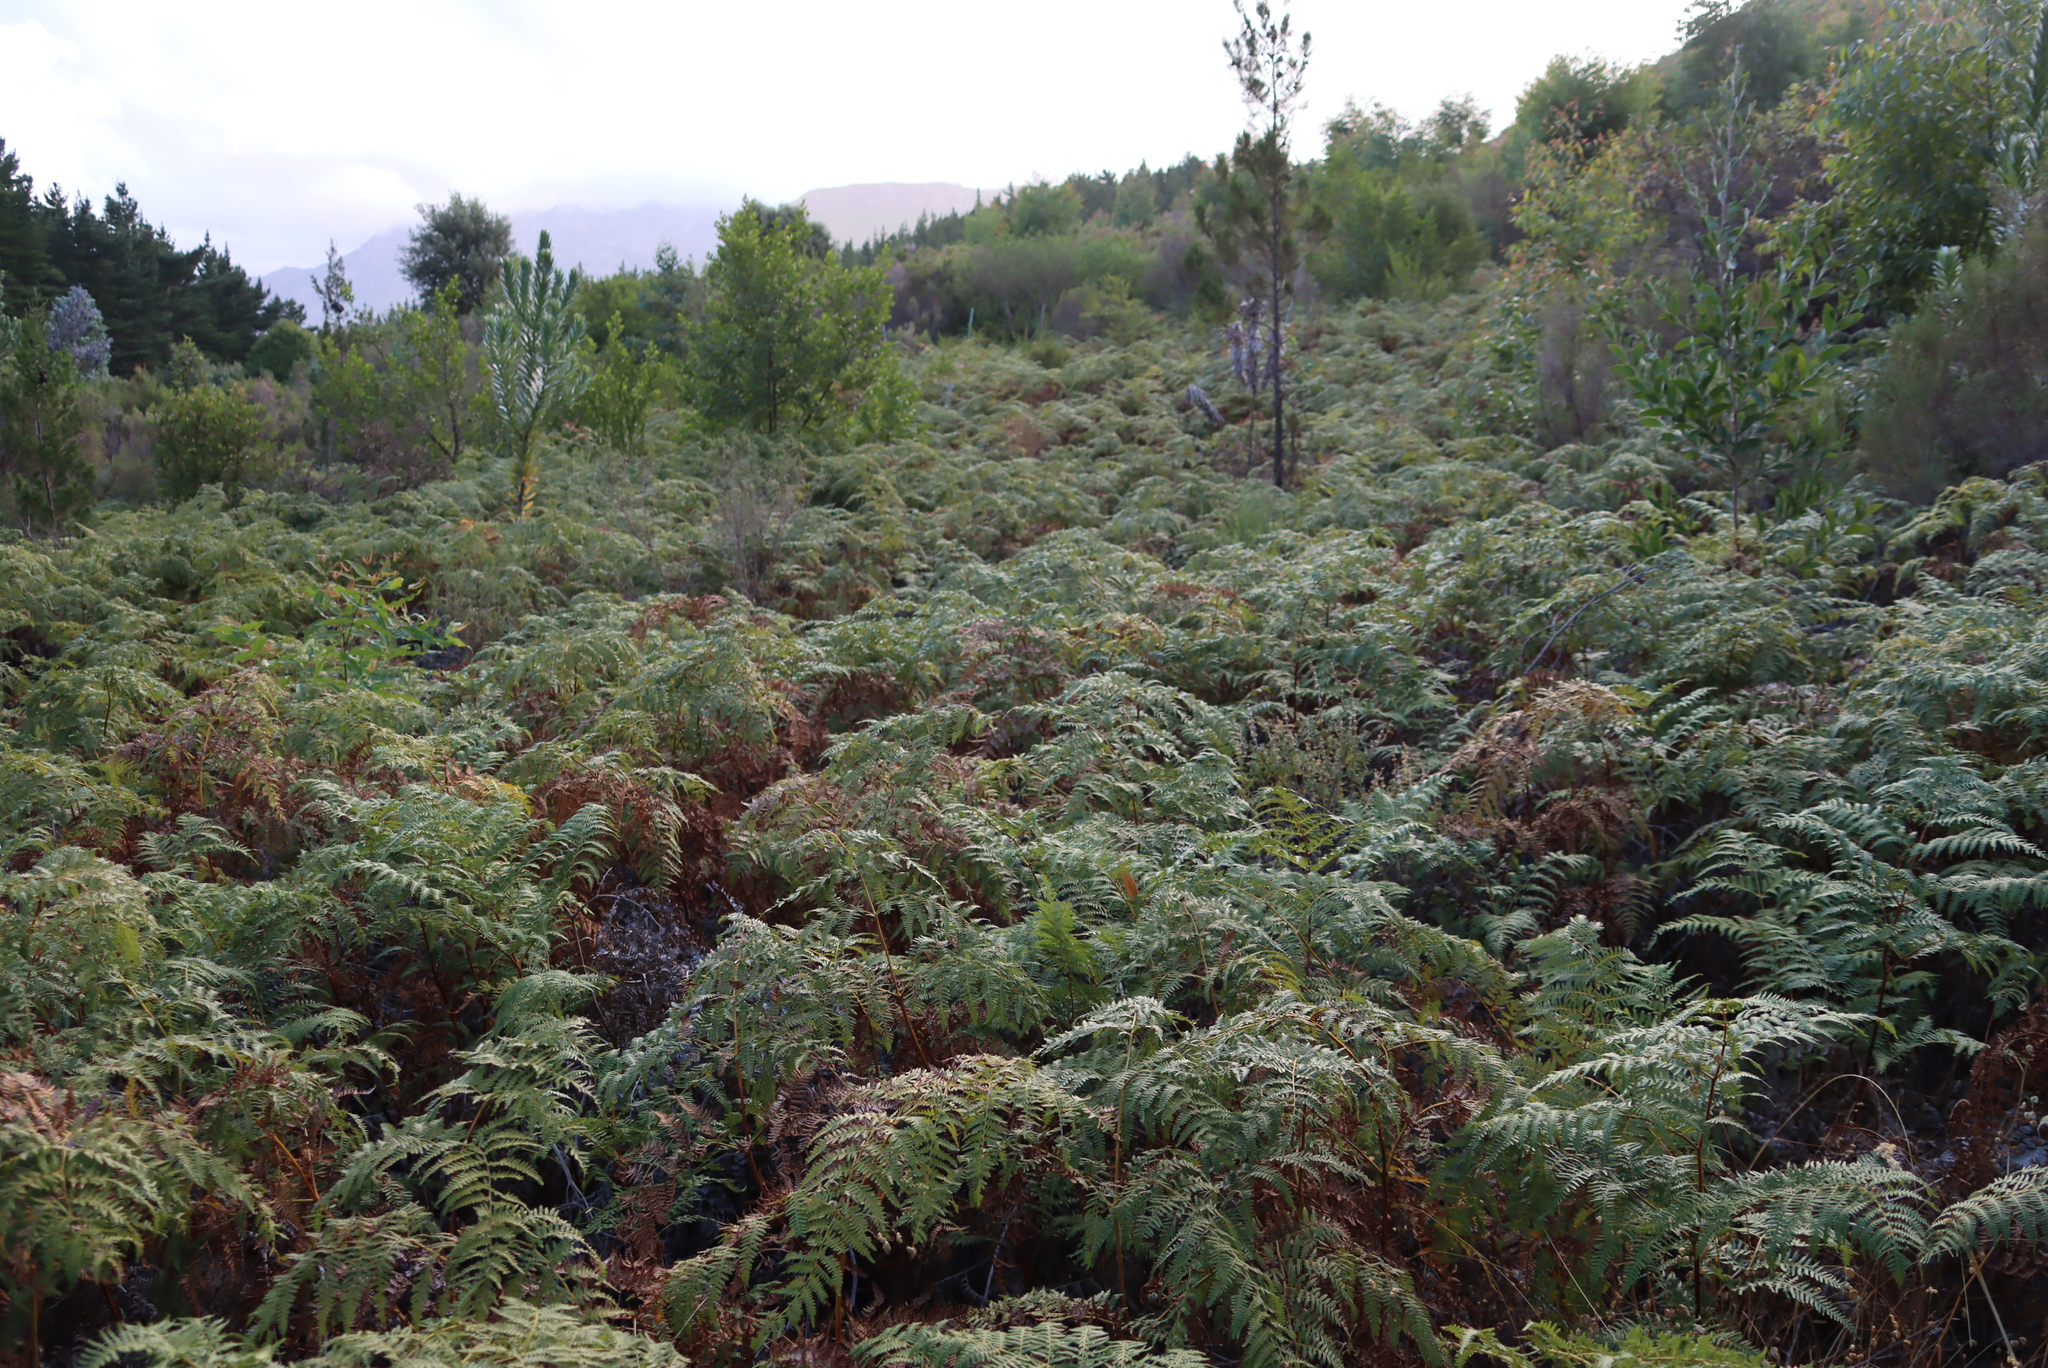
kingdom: Plantae
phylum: Tracheophyta
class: Polypodiopsida
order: Polypodiales
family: Dennstaedtiaceae
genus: Pteridium
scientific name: Pteridium aquilinum
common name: Bracken
